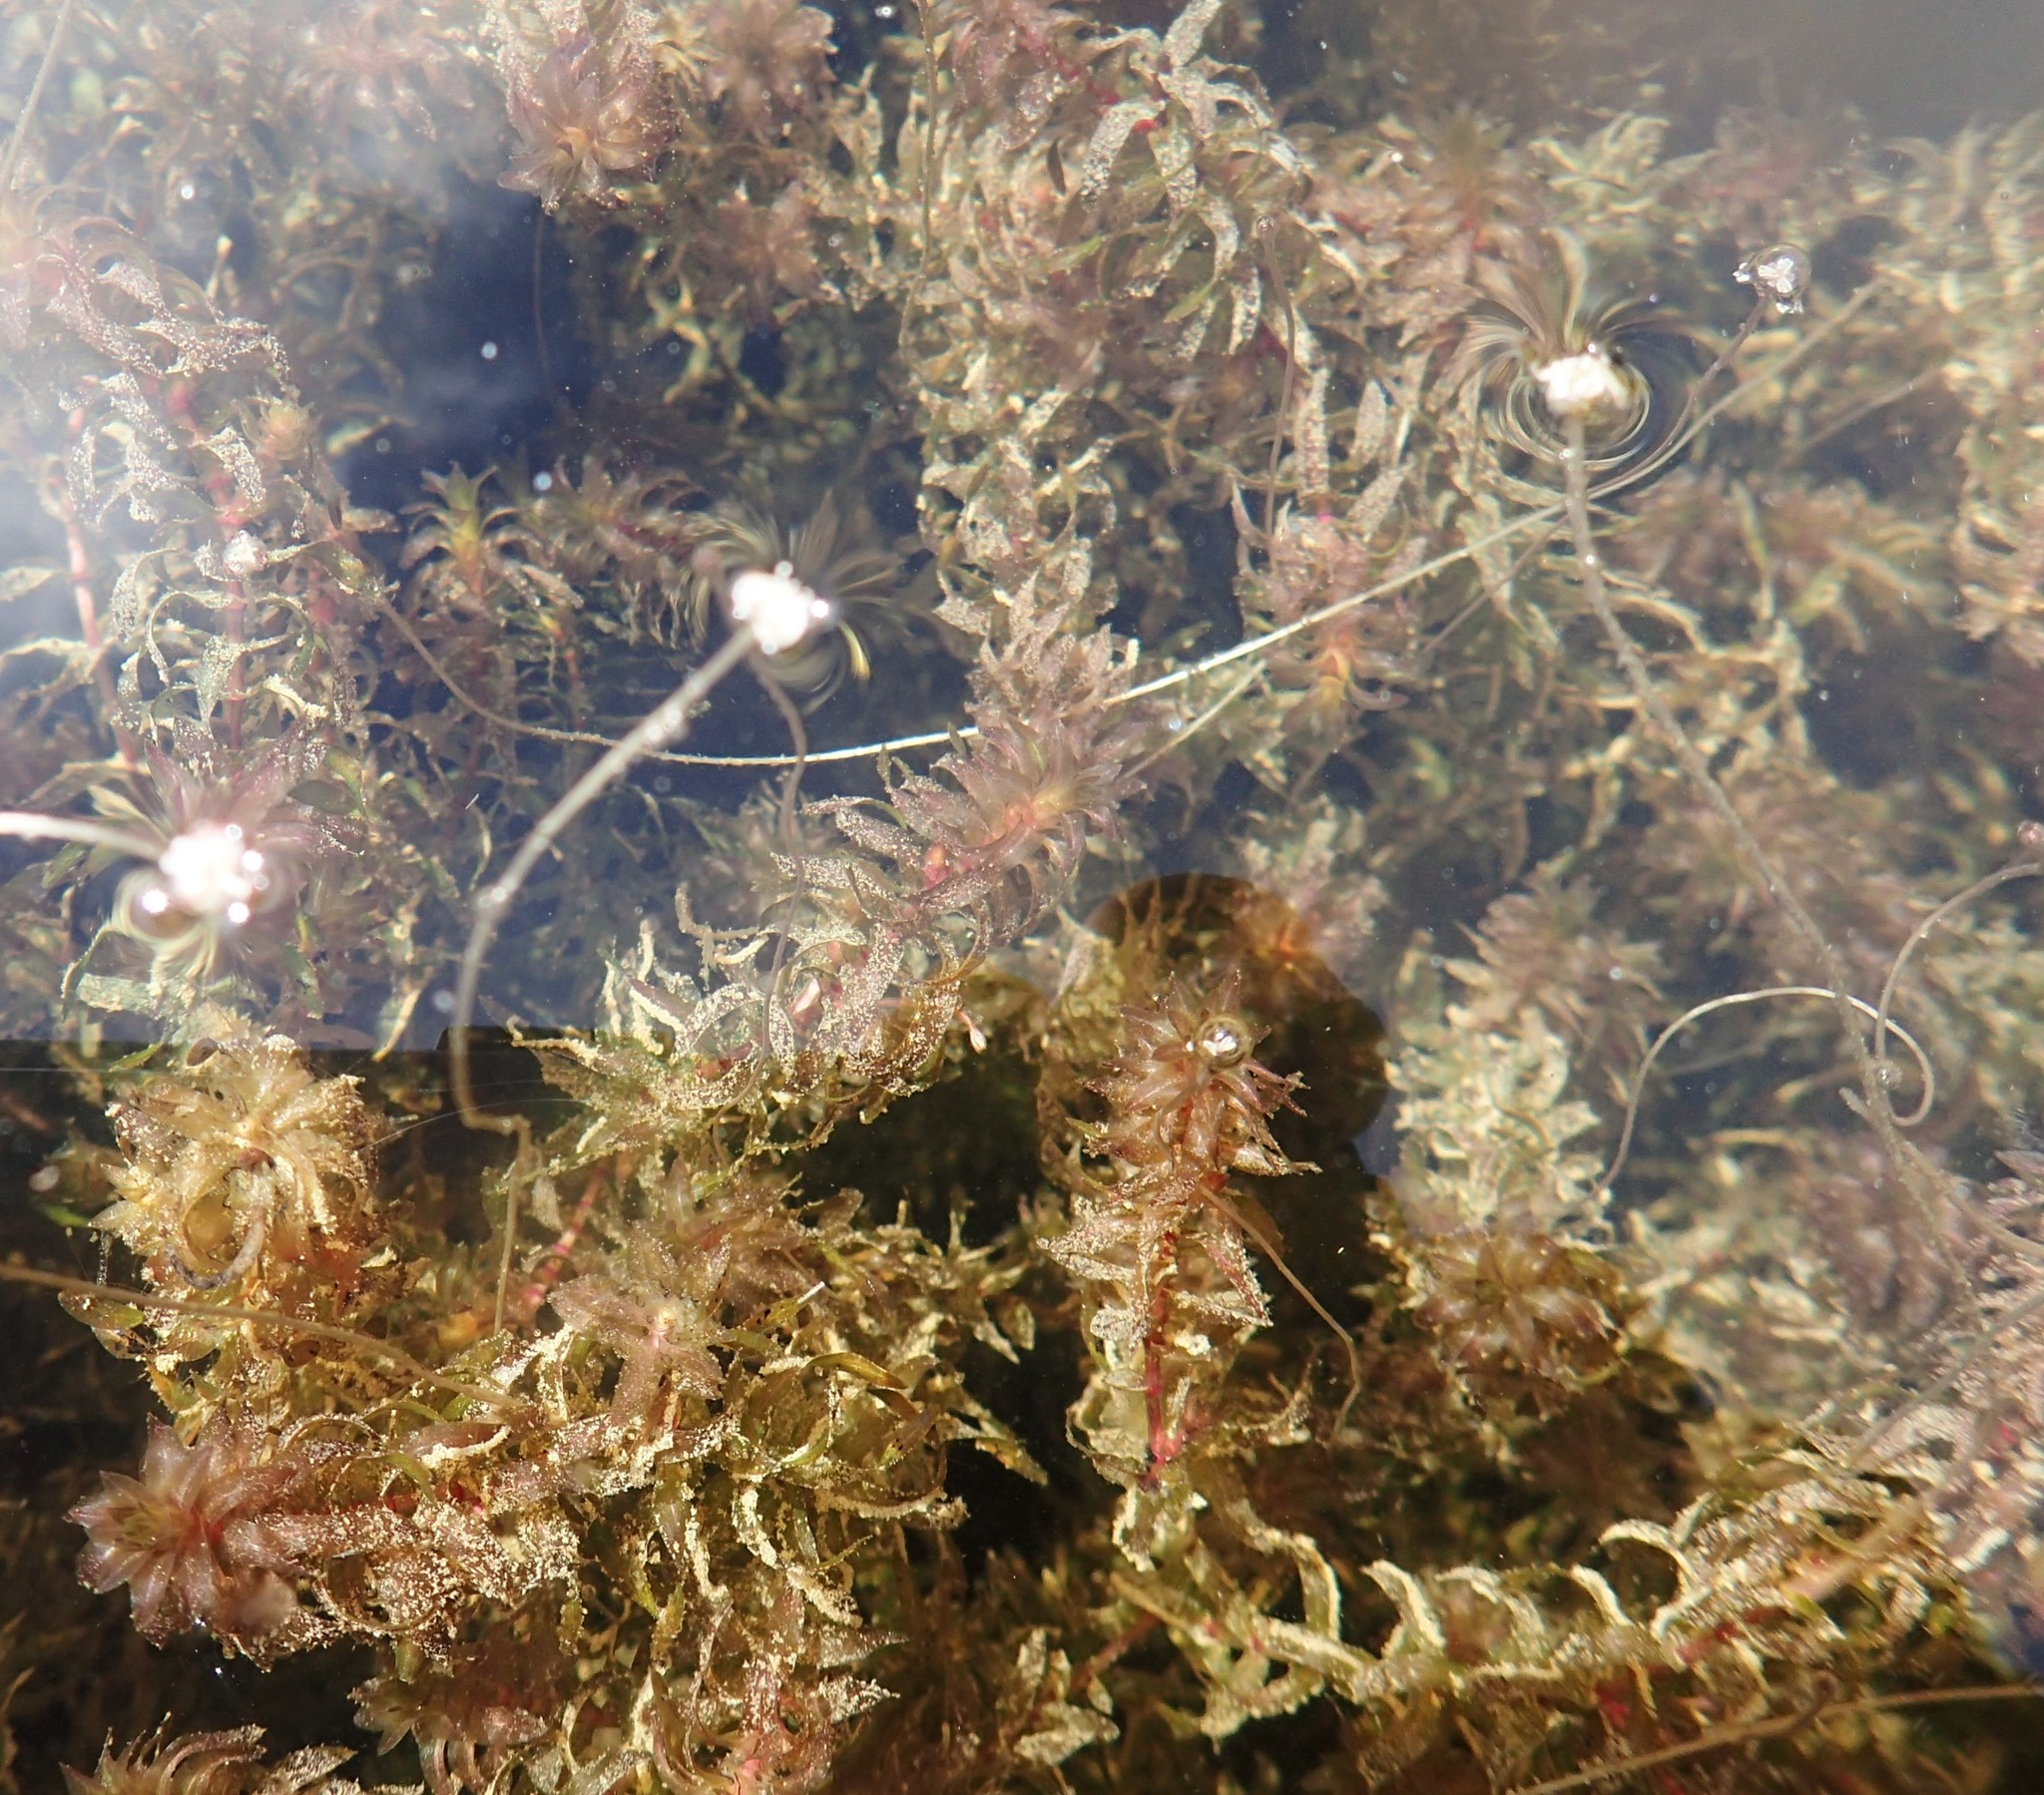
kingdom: Plantae
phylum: Tracheophyta
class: Liliopsida
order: Alismatales
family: Hydrocharitaceae
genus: Elodea
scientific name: Elodea canadensis
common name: Canadian waterweed
